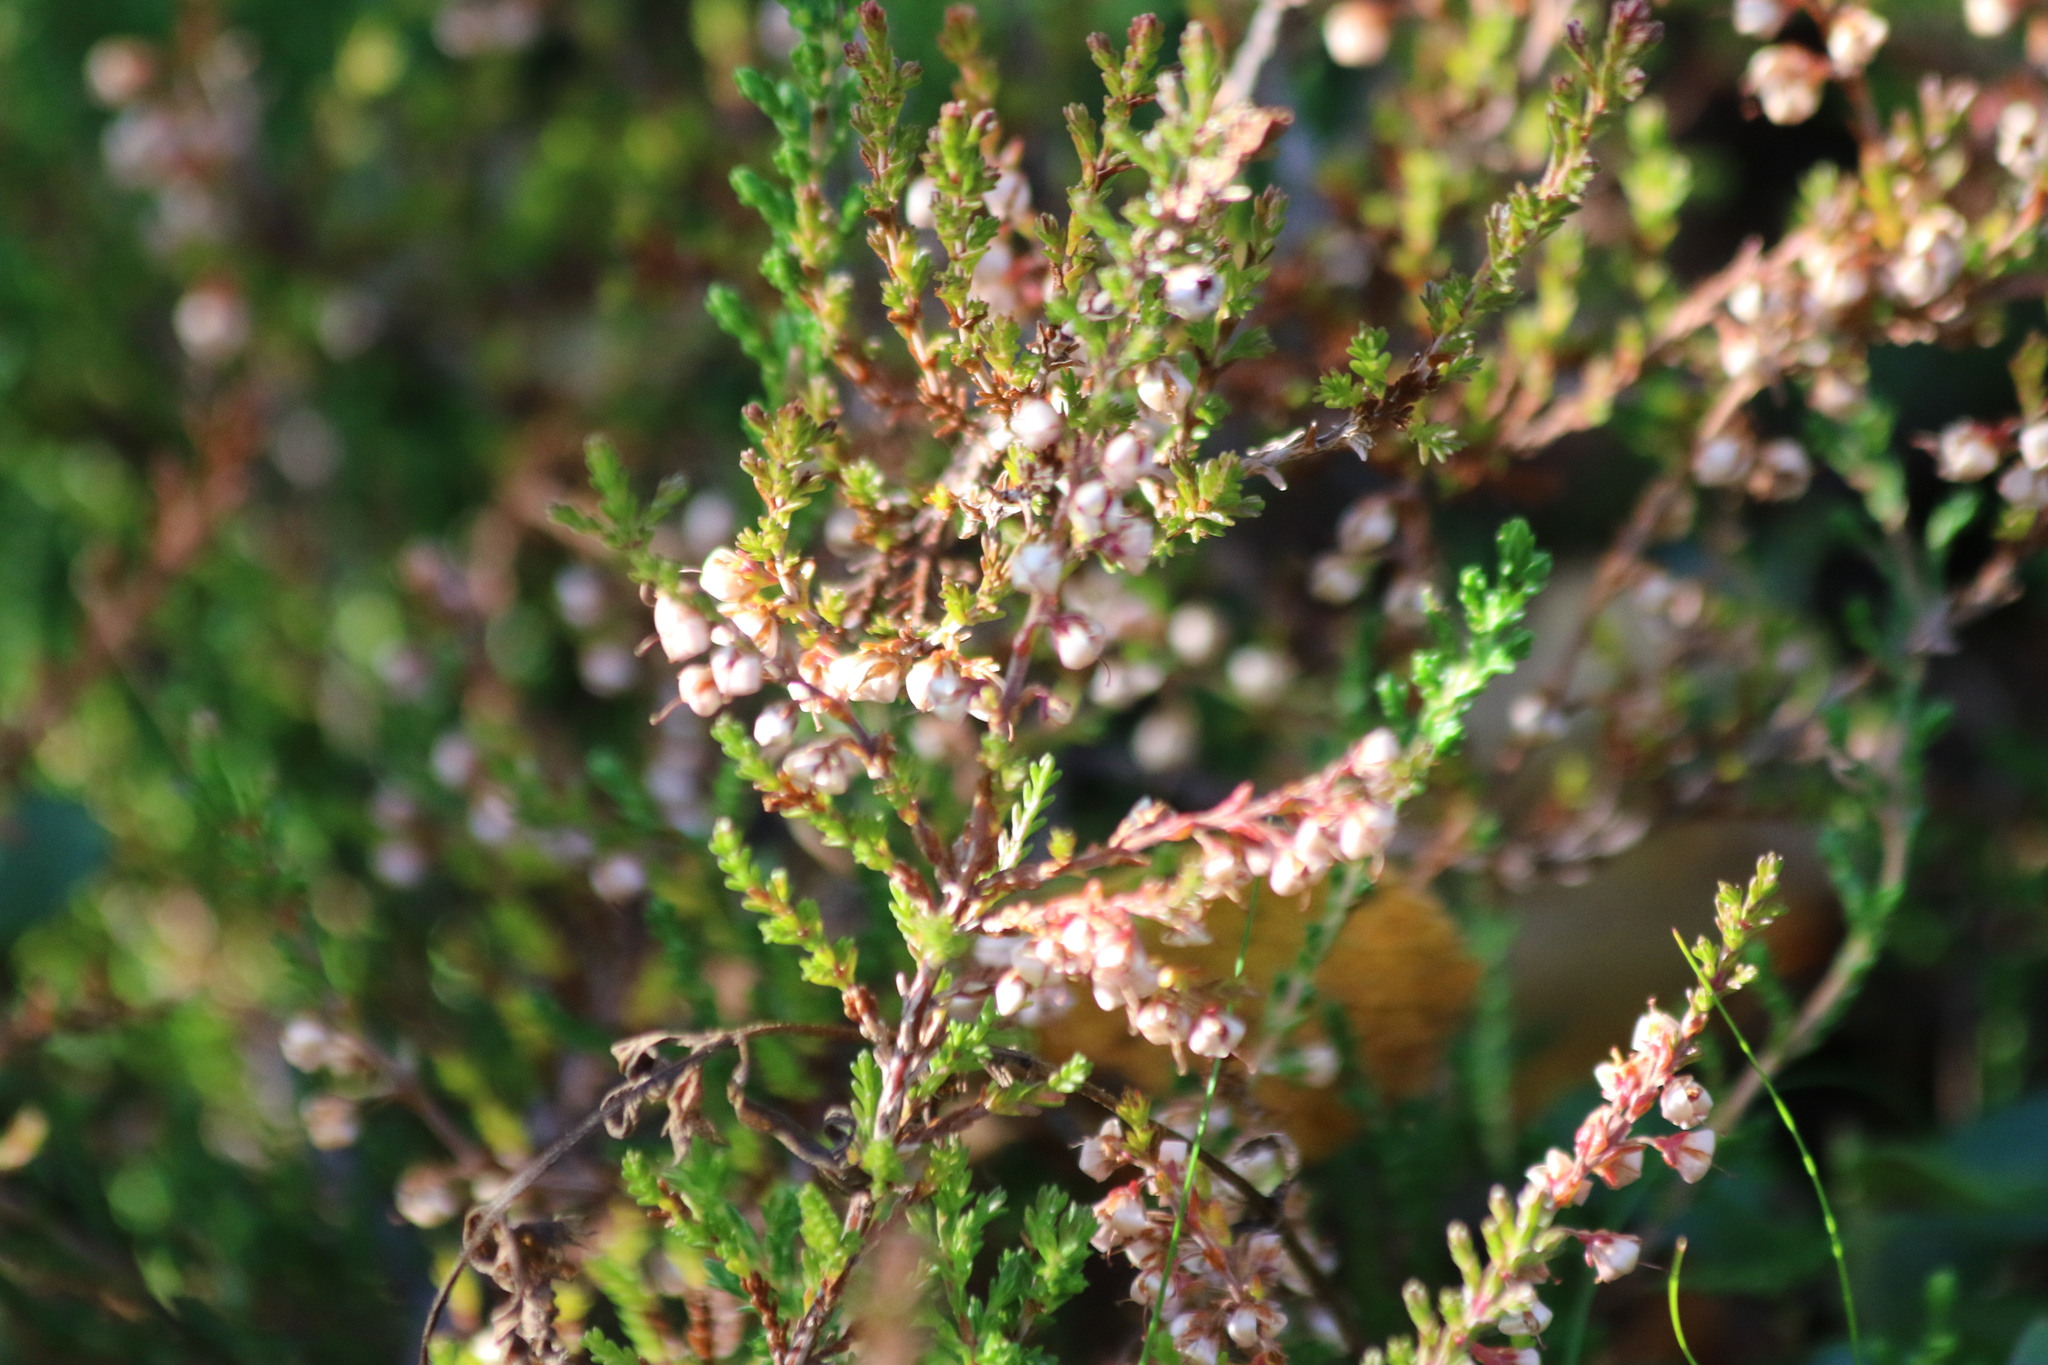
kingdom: Plantae
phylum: Tracheophyta
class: Magnoliopsida
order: Ericales
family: Ericaceae
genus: Calluna
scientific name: Calluna vulgaris
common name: Heather
